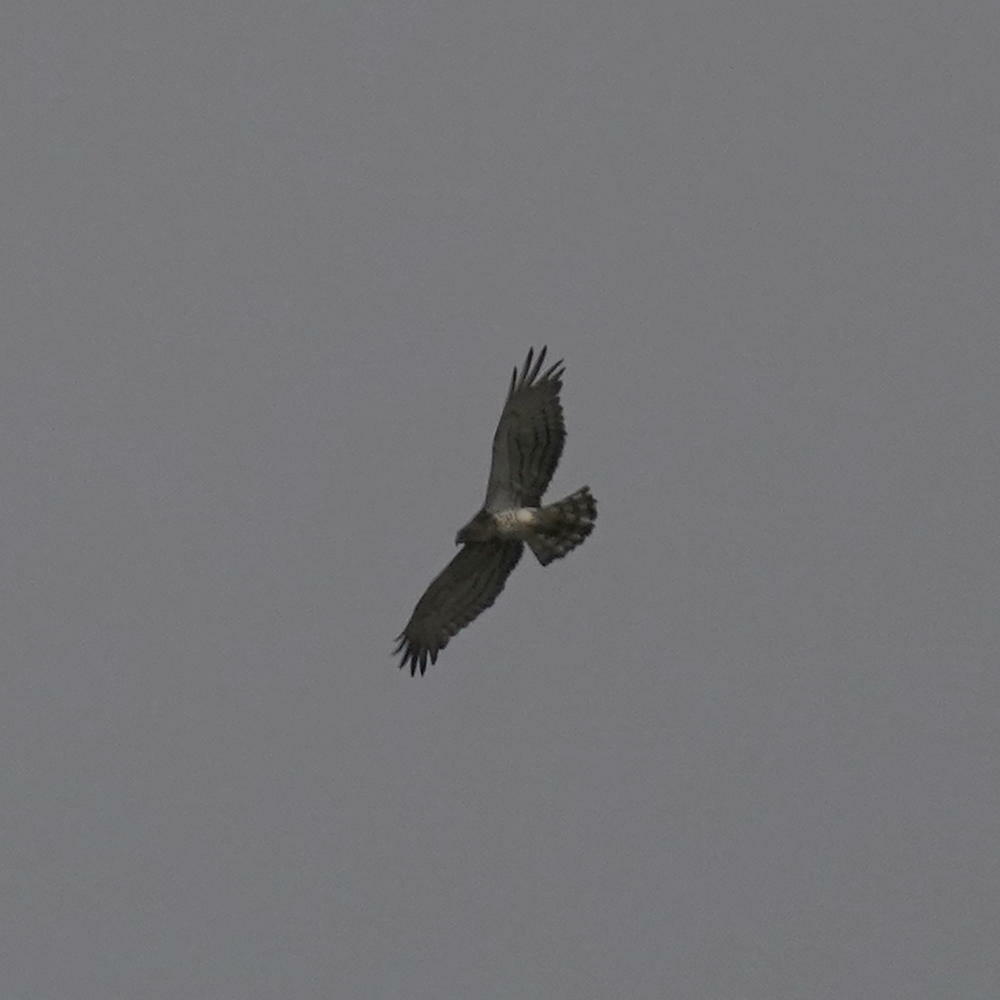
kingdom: Animalia
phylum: Chordata
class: Aves
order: Accipitriformes
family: Accipitridae
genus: Circaetus
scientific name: Circaetus gallicus
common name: Short-toed snake eagle
